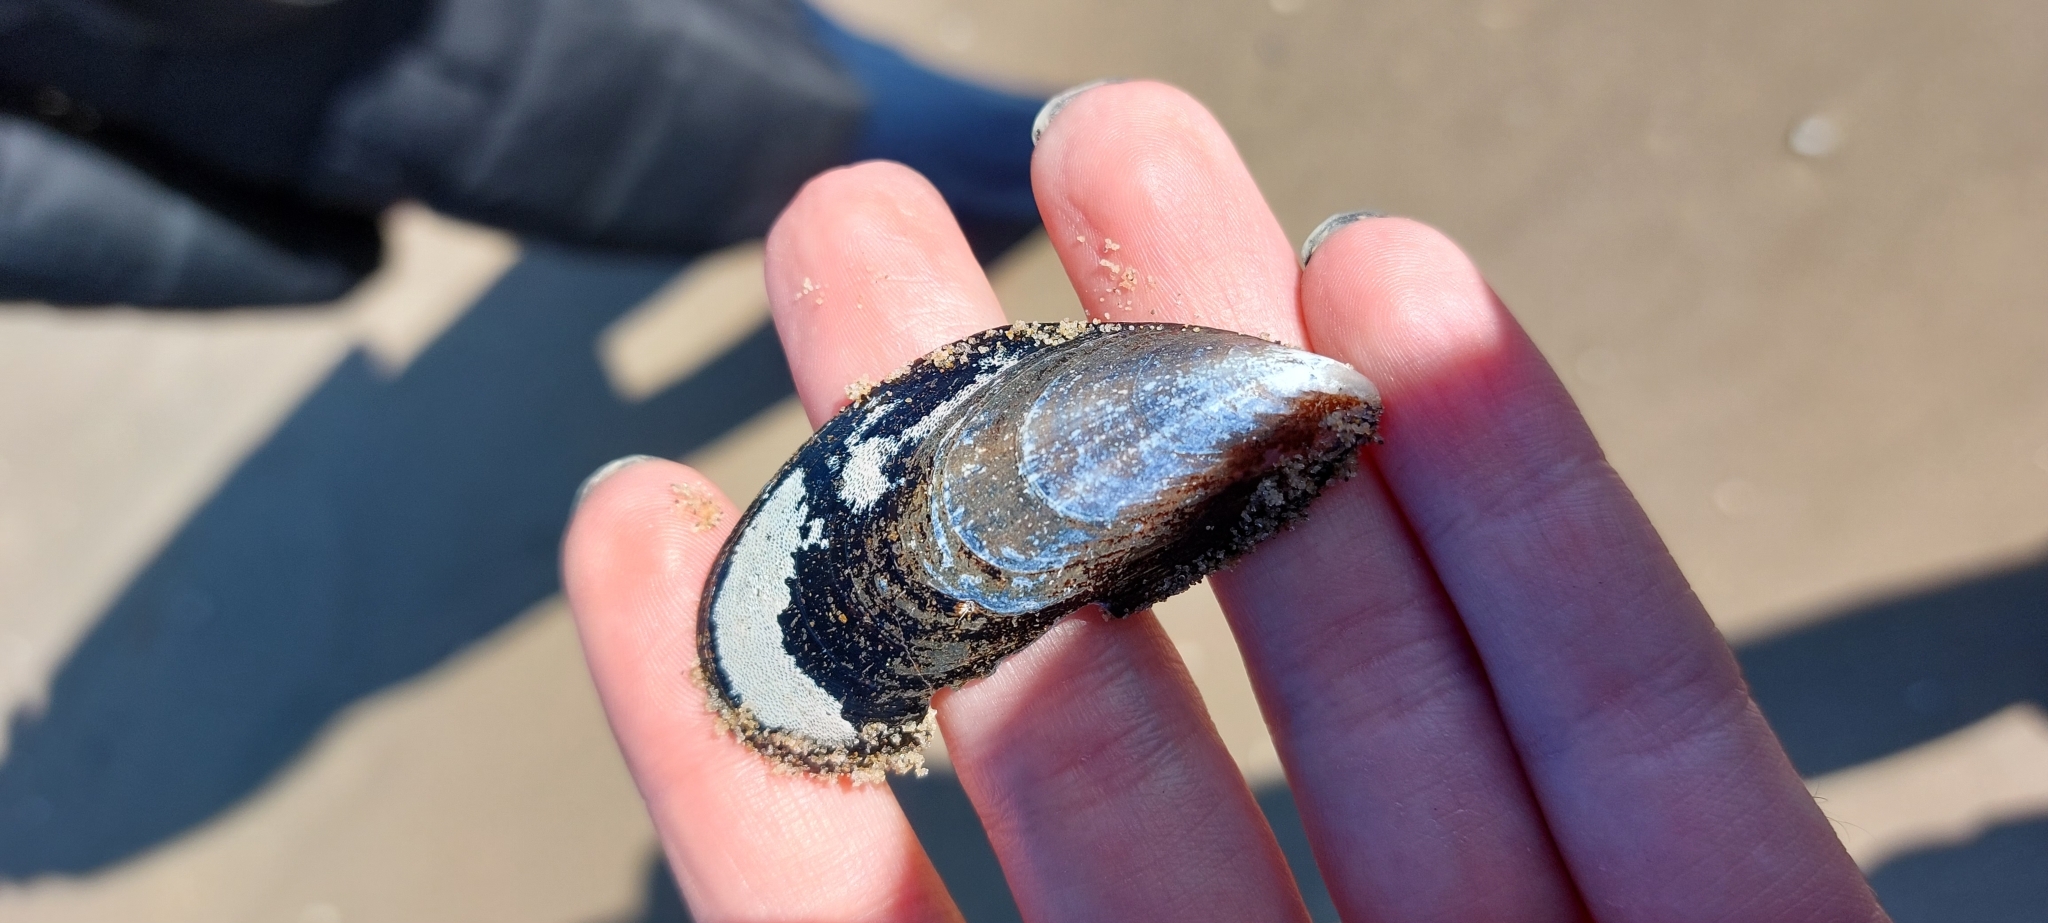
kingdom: Animalia
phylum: Mollusca
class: Bivalvia
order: Mytilida
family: Mytilidae
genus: Mytilus
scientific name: Mytilus edulis
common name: Blue mussel
